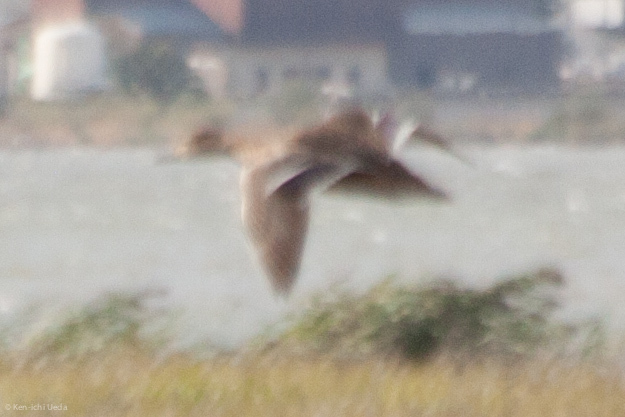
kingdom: Animalia
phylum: Chordata
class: Aves
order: Anseriformes
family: Anatidae
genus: Anas
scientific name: Anas platyrhynchos
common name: Mallard
